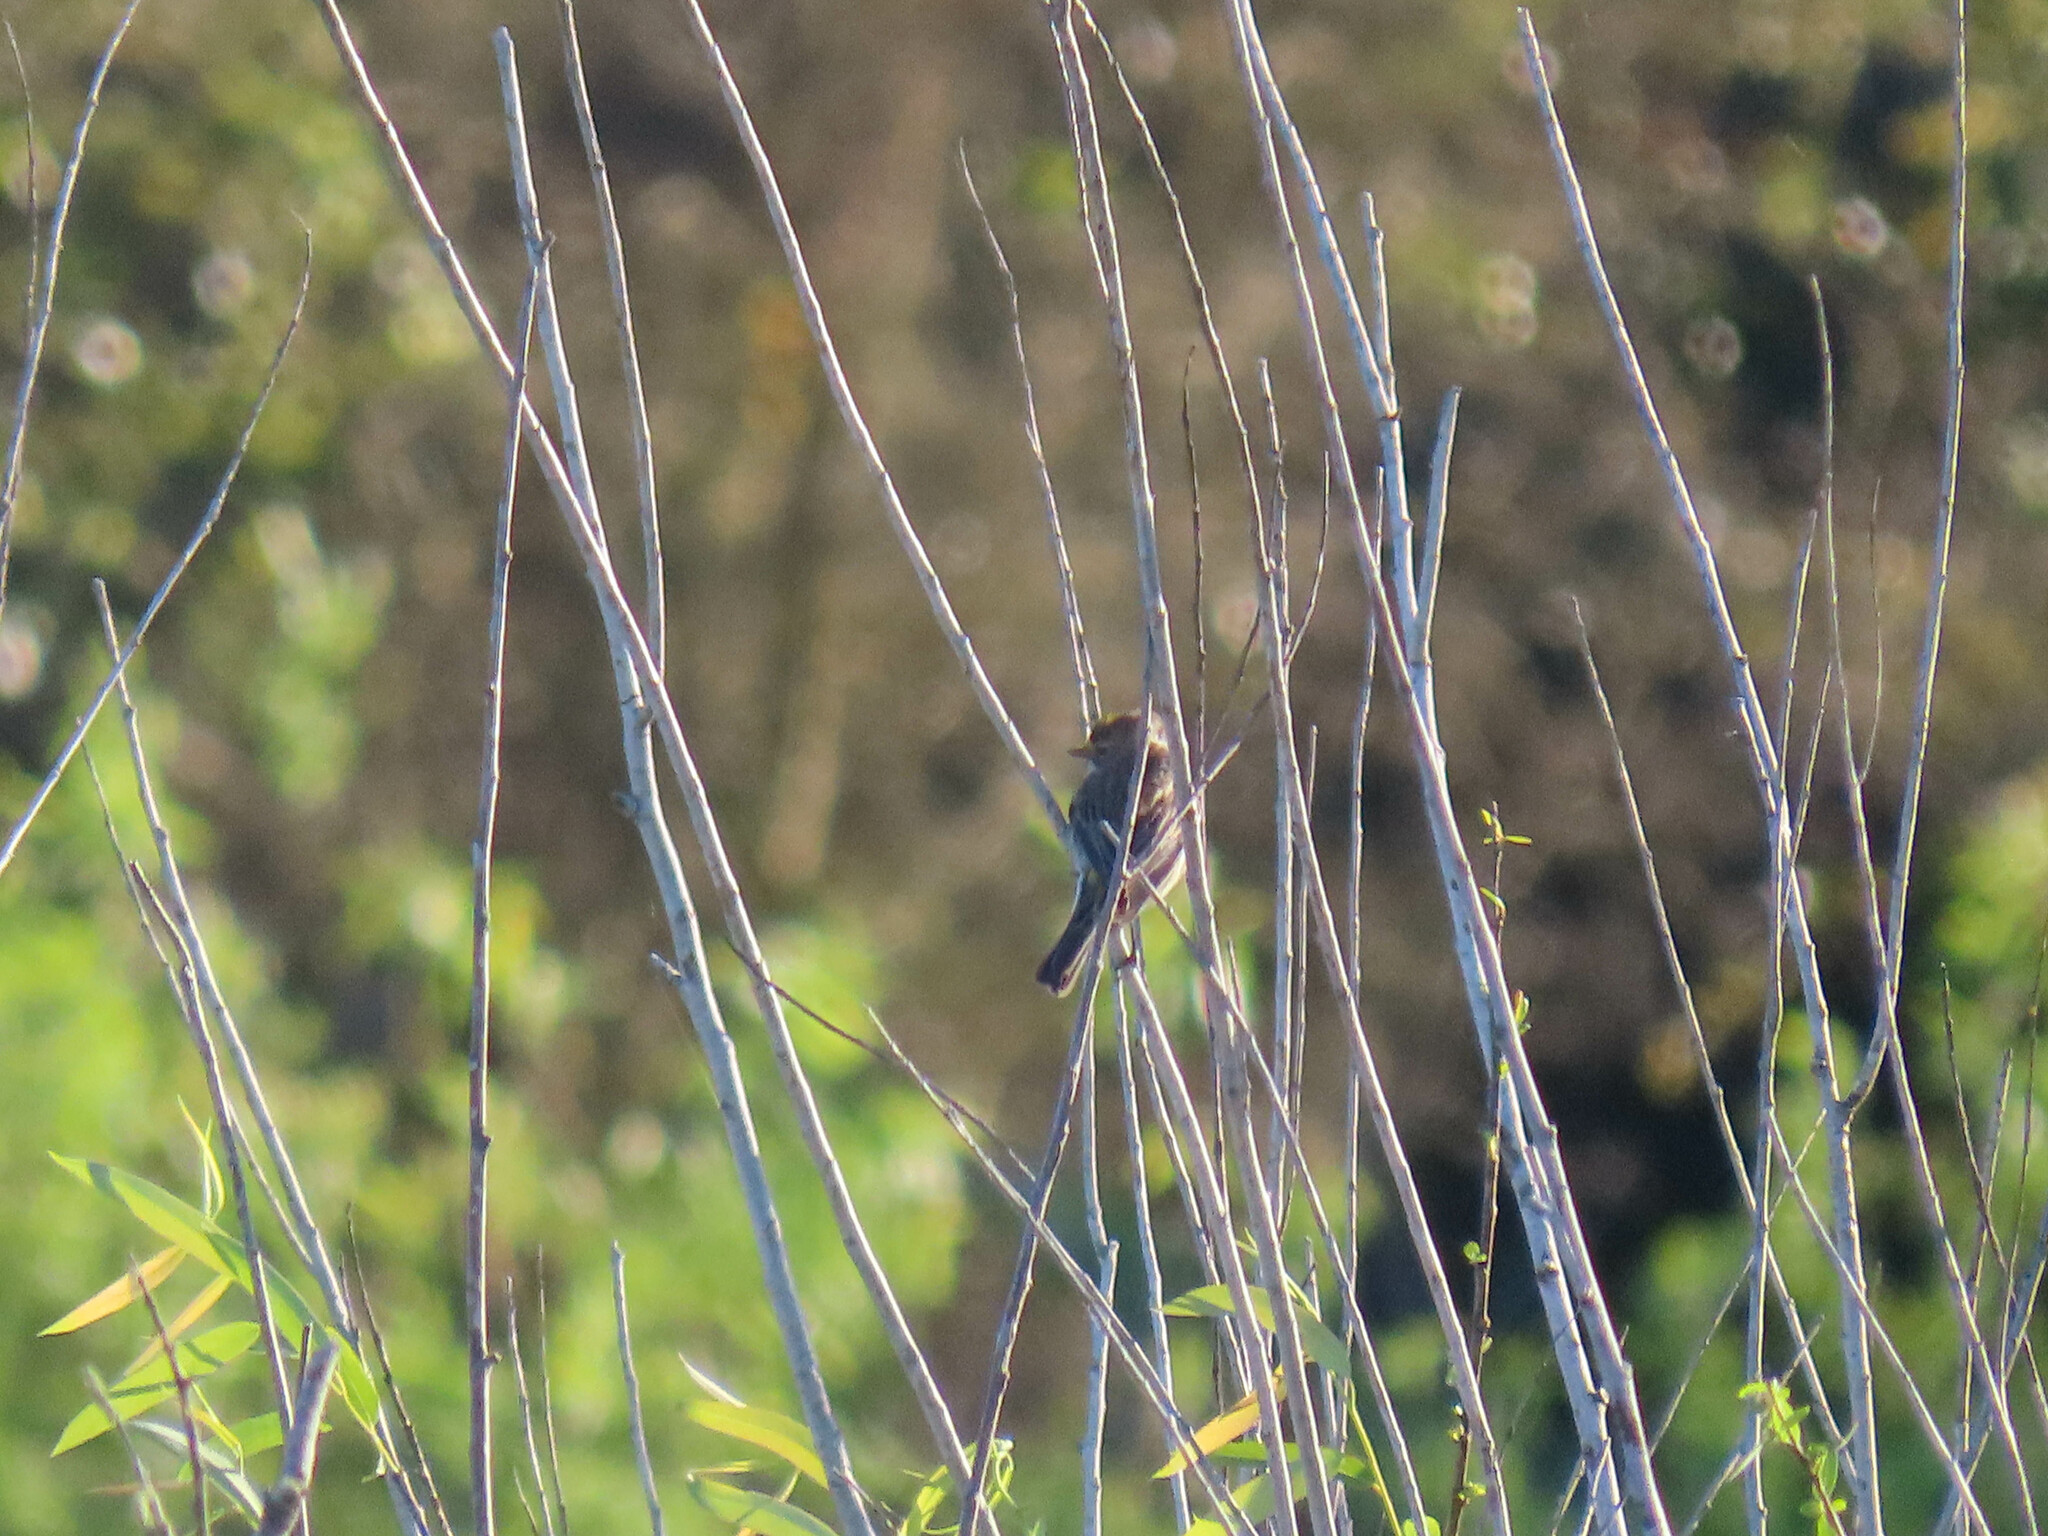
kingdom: Animalia
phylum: Chordata
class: Aves
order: Passeriformes
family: Parulidae
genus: Setophaga
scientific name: Setophaga coronata
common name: Myrtle warbler
